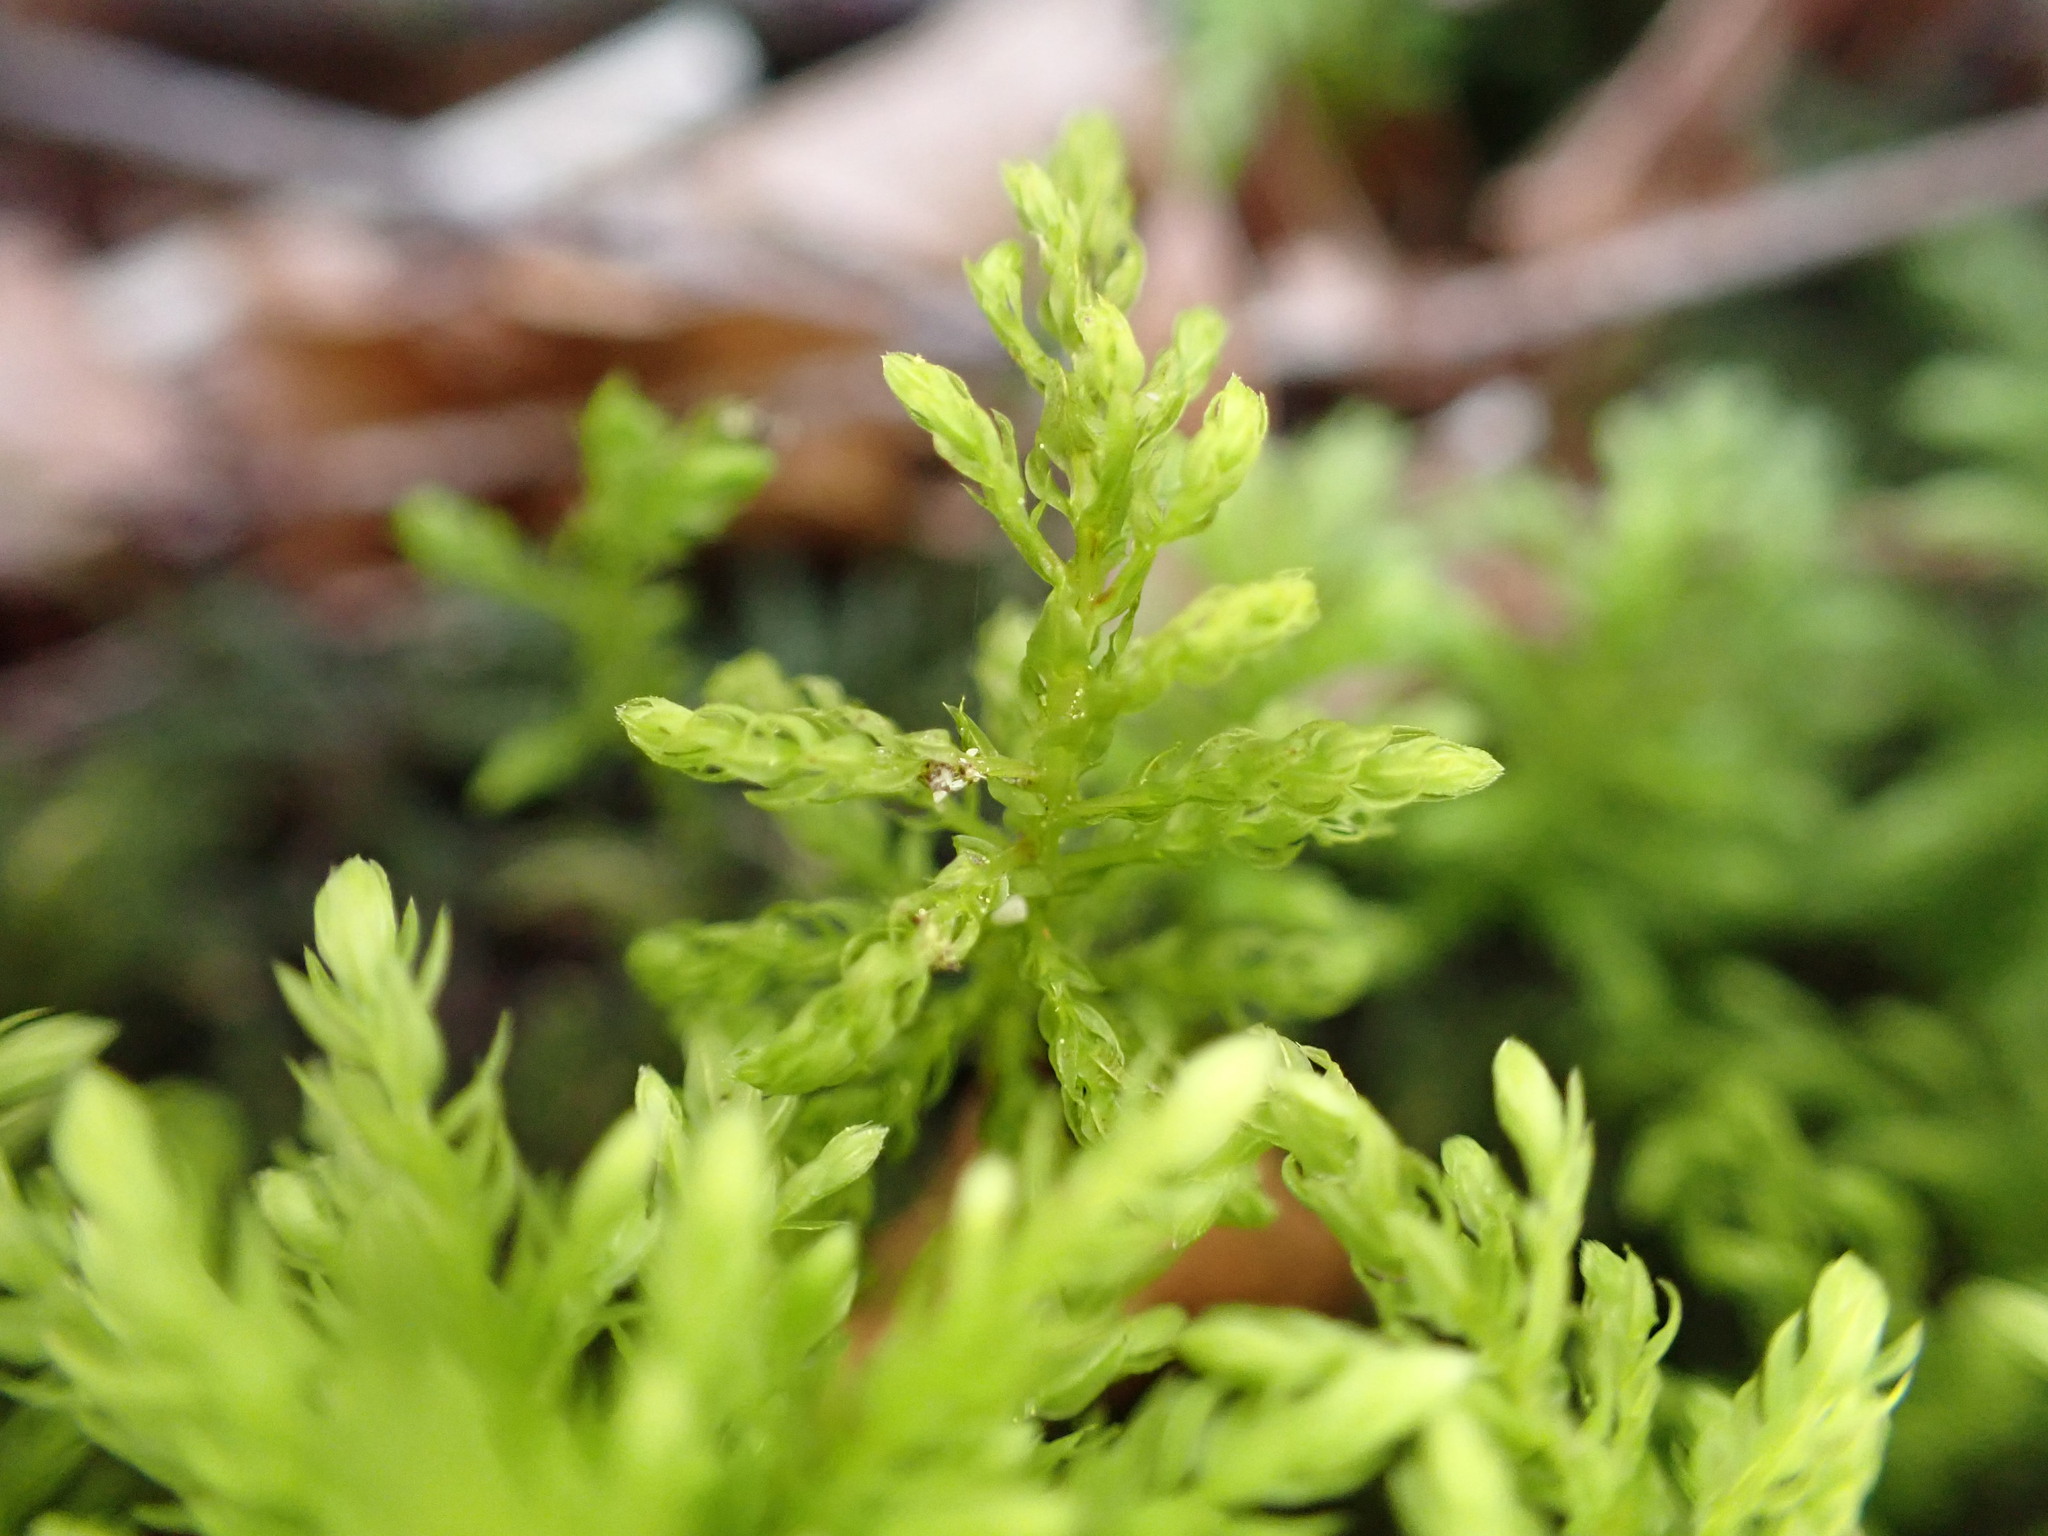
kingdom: Plantae
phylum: Bryophyta
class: Bryopsida
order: Bryales
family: Mniaceae
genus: Leucolepis
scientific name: Leucolepis acanthoneura
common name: Leucolepis umbrella moss
